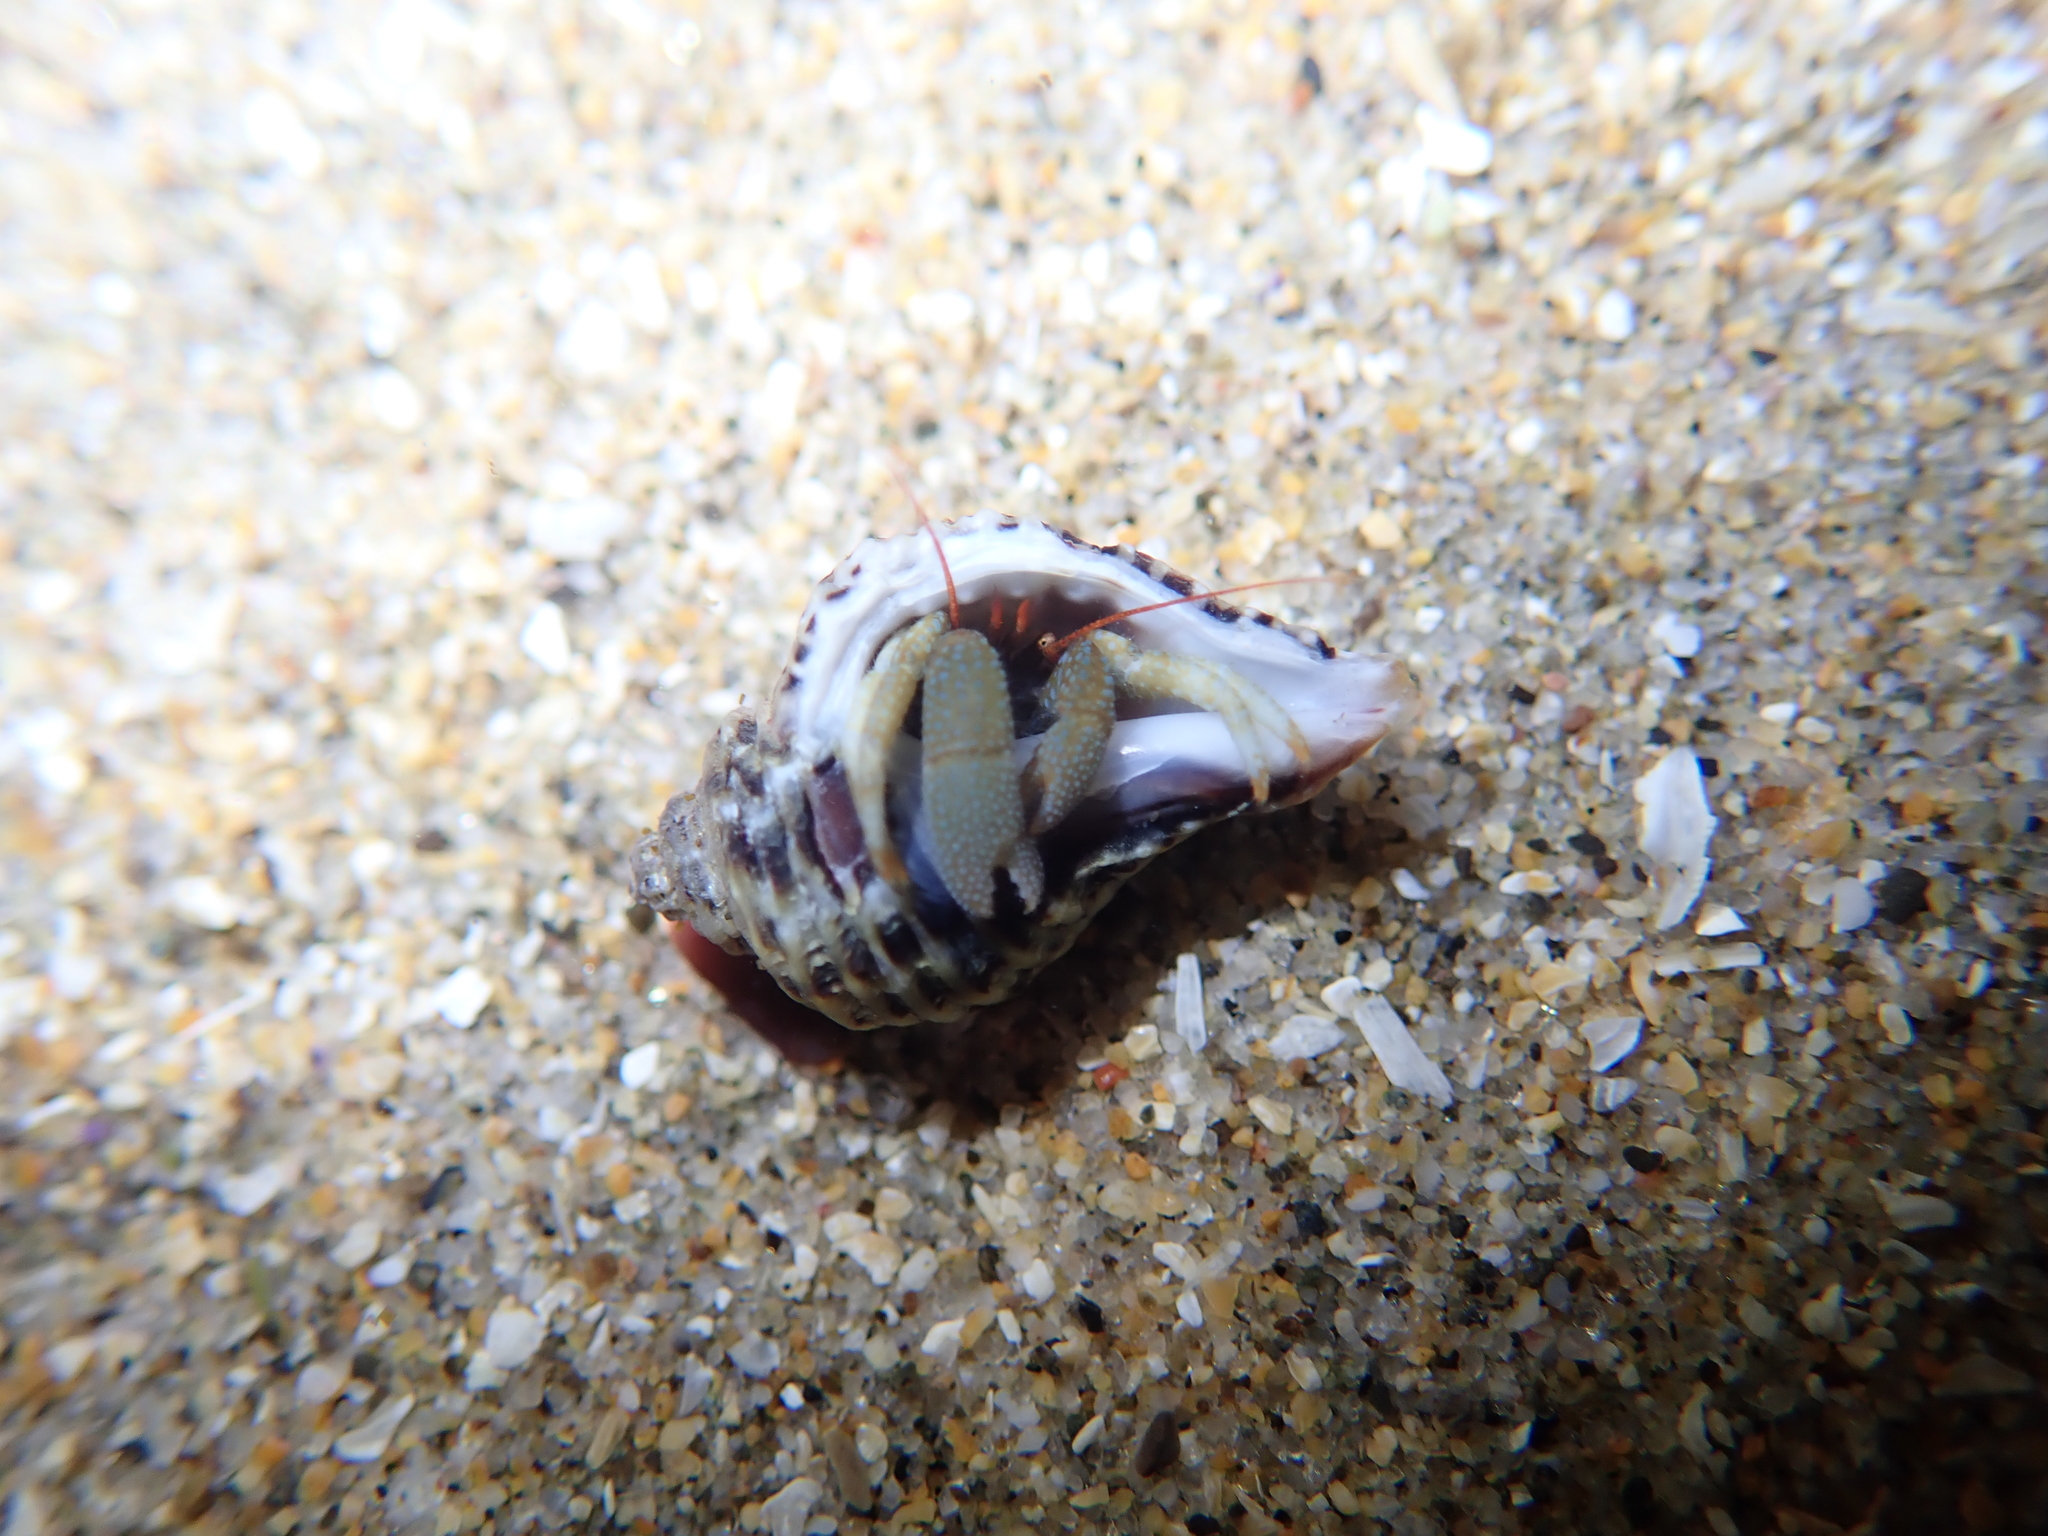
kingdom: Animalia
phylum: Arthropoda
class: Malacostraca
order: Decapoda
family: Paguridae
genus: Pagurus
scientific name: Pagurus granosimanus
